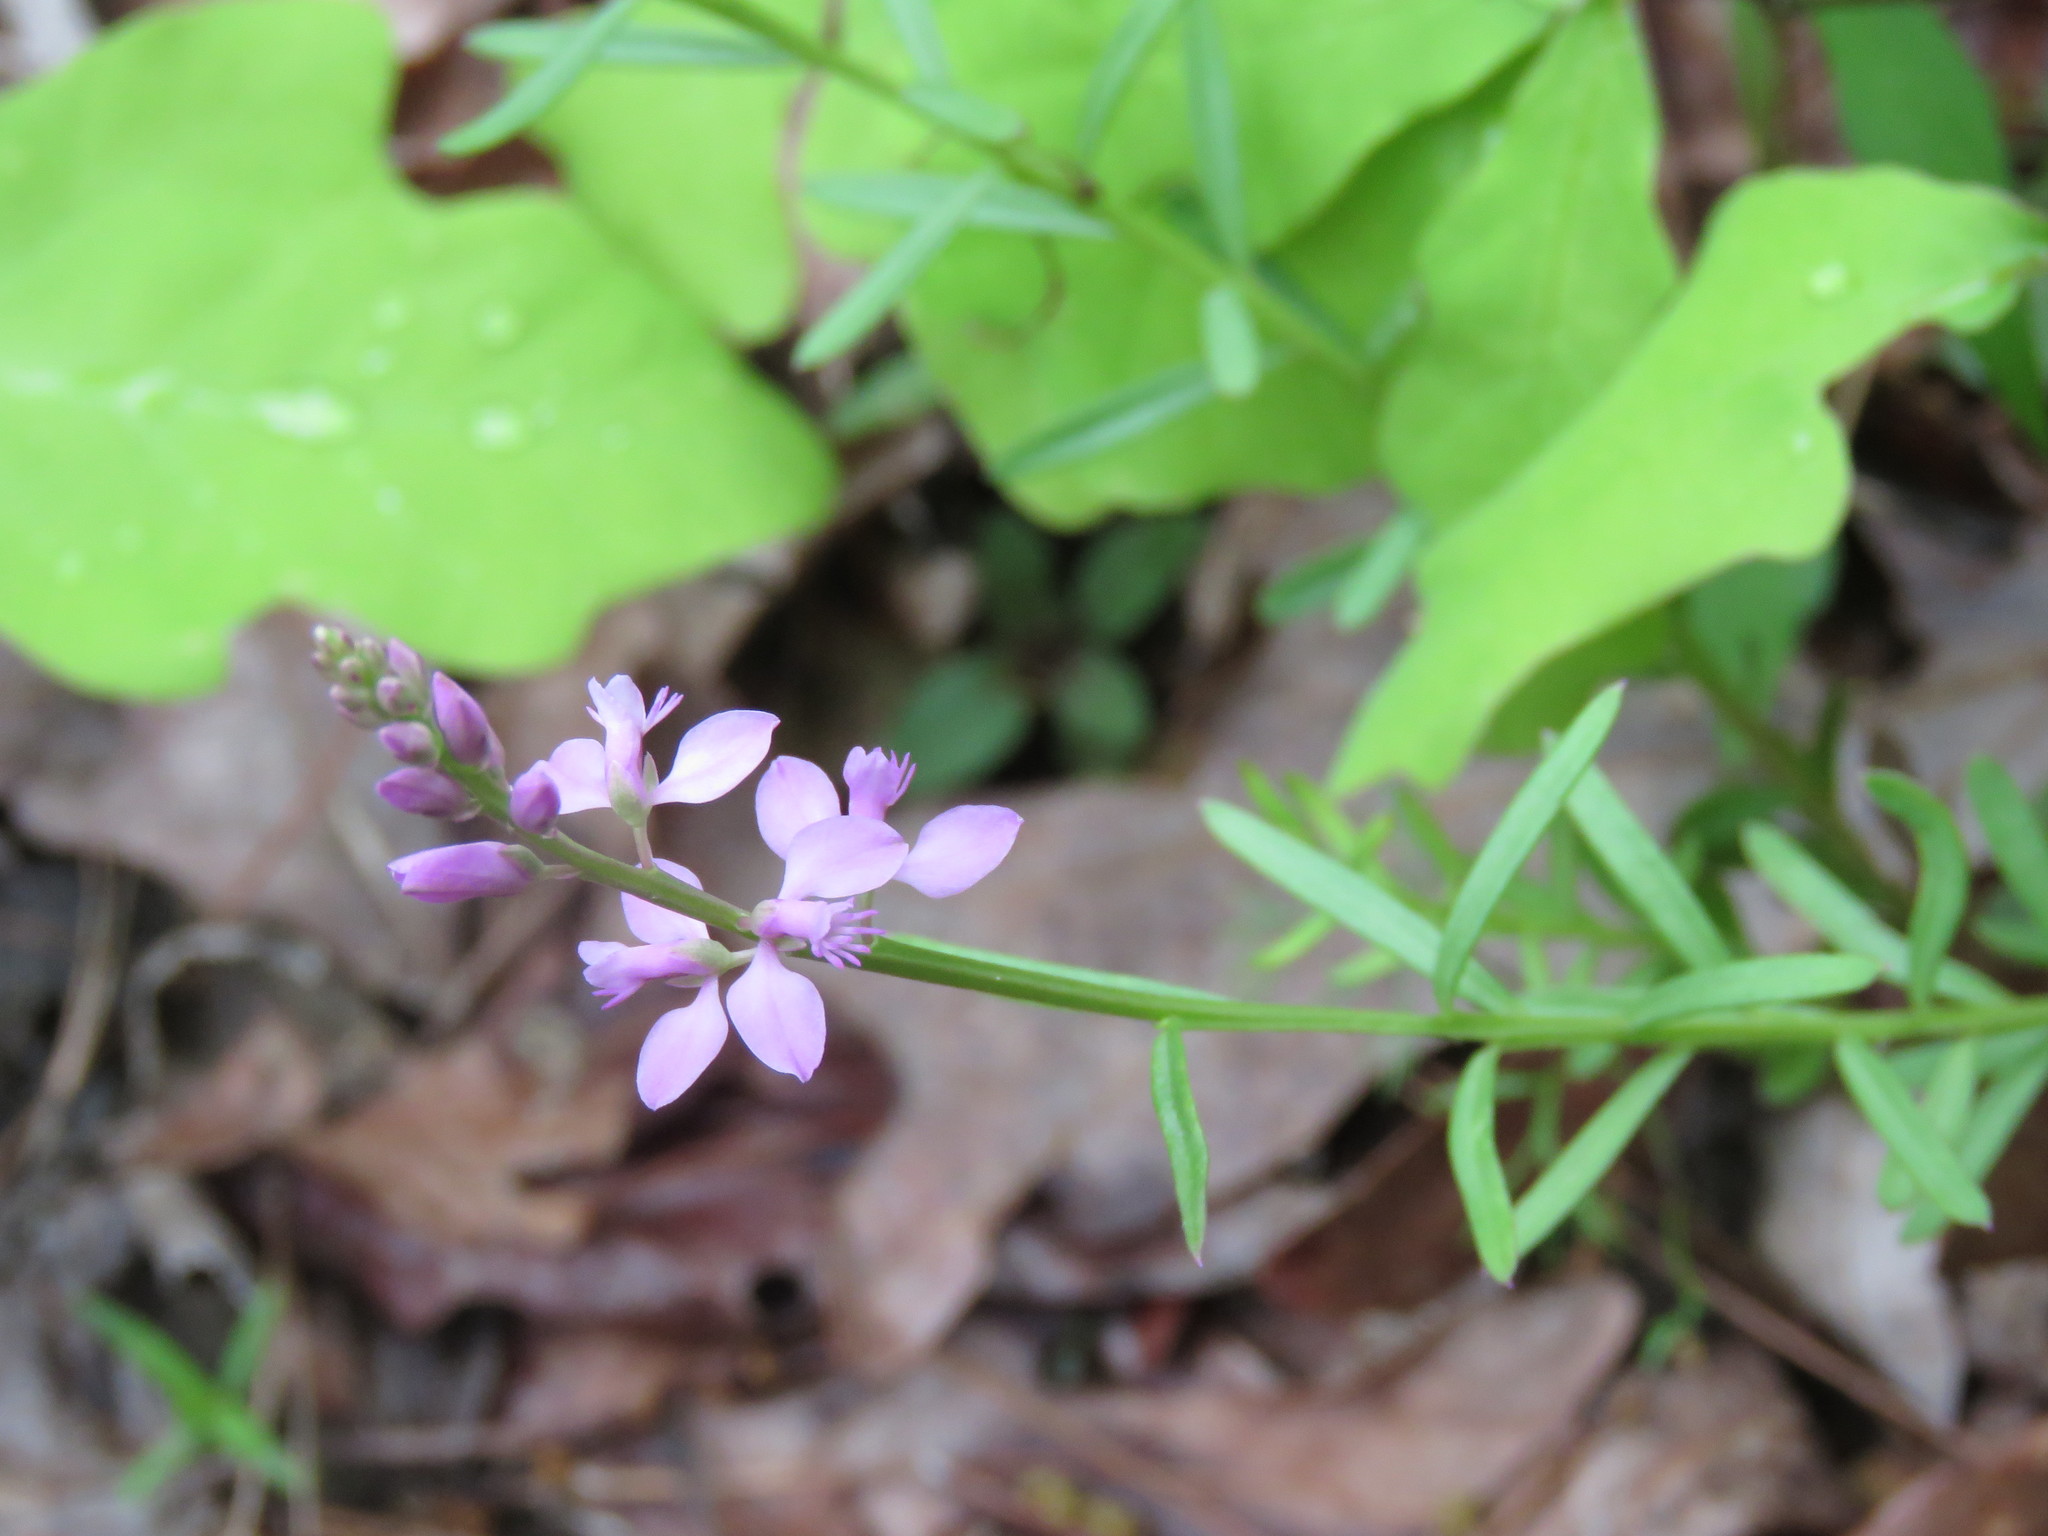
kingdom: Plantae
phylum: Tracheophyta
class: Magnoliopsida
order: Fabales
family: Polygalaceae
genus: Polygala
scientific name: Polygala polygama
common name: Bitter milkwort
